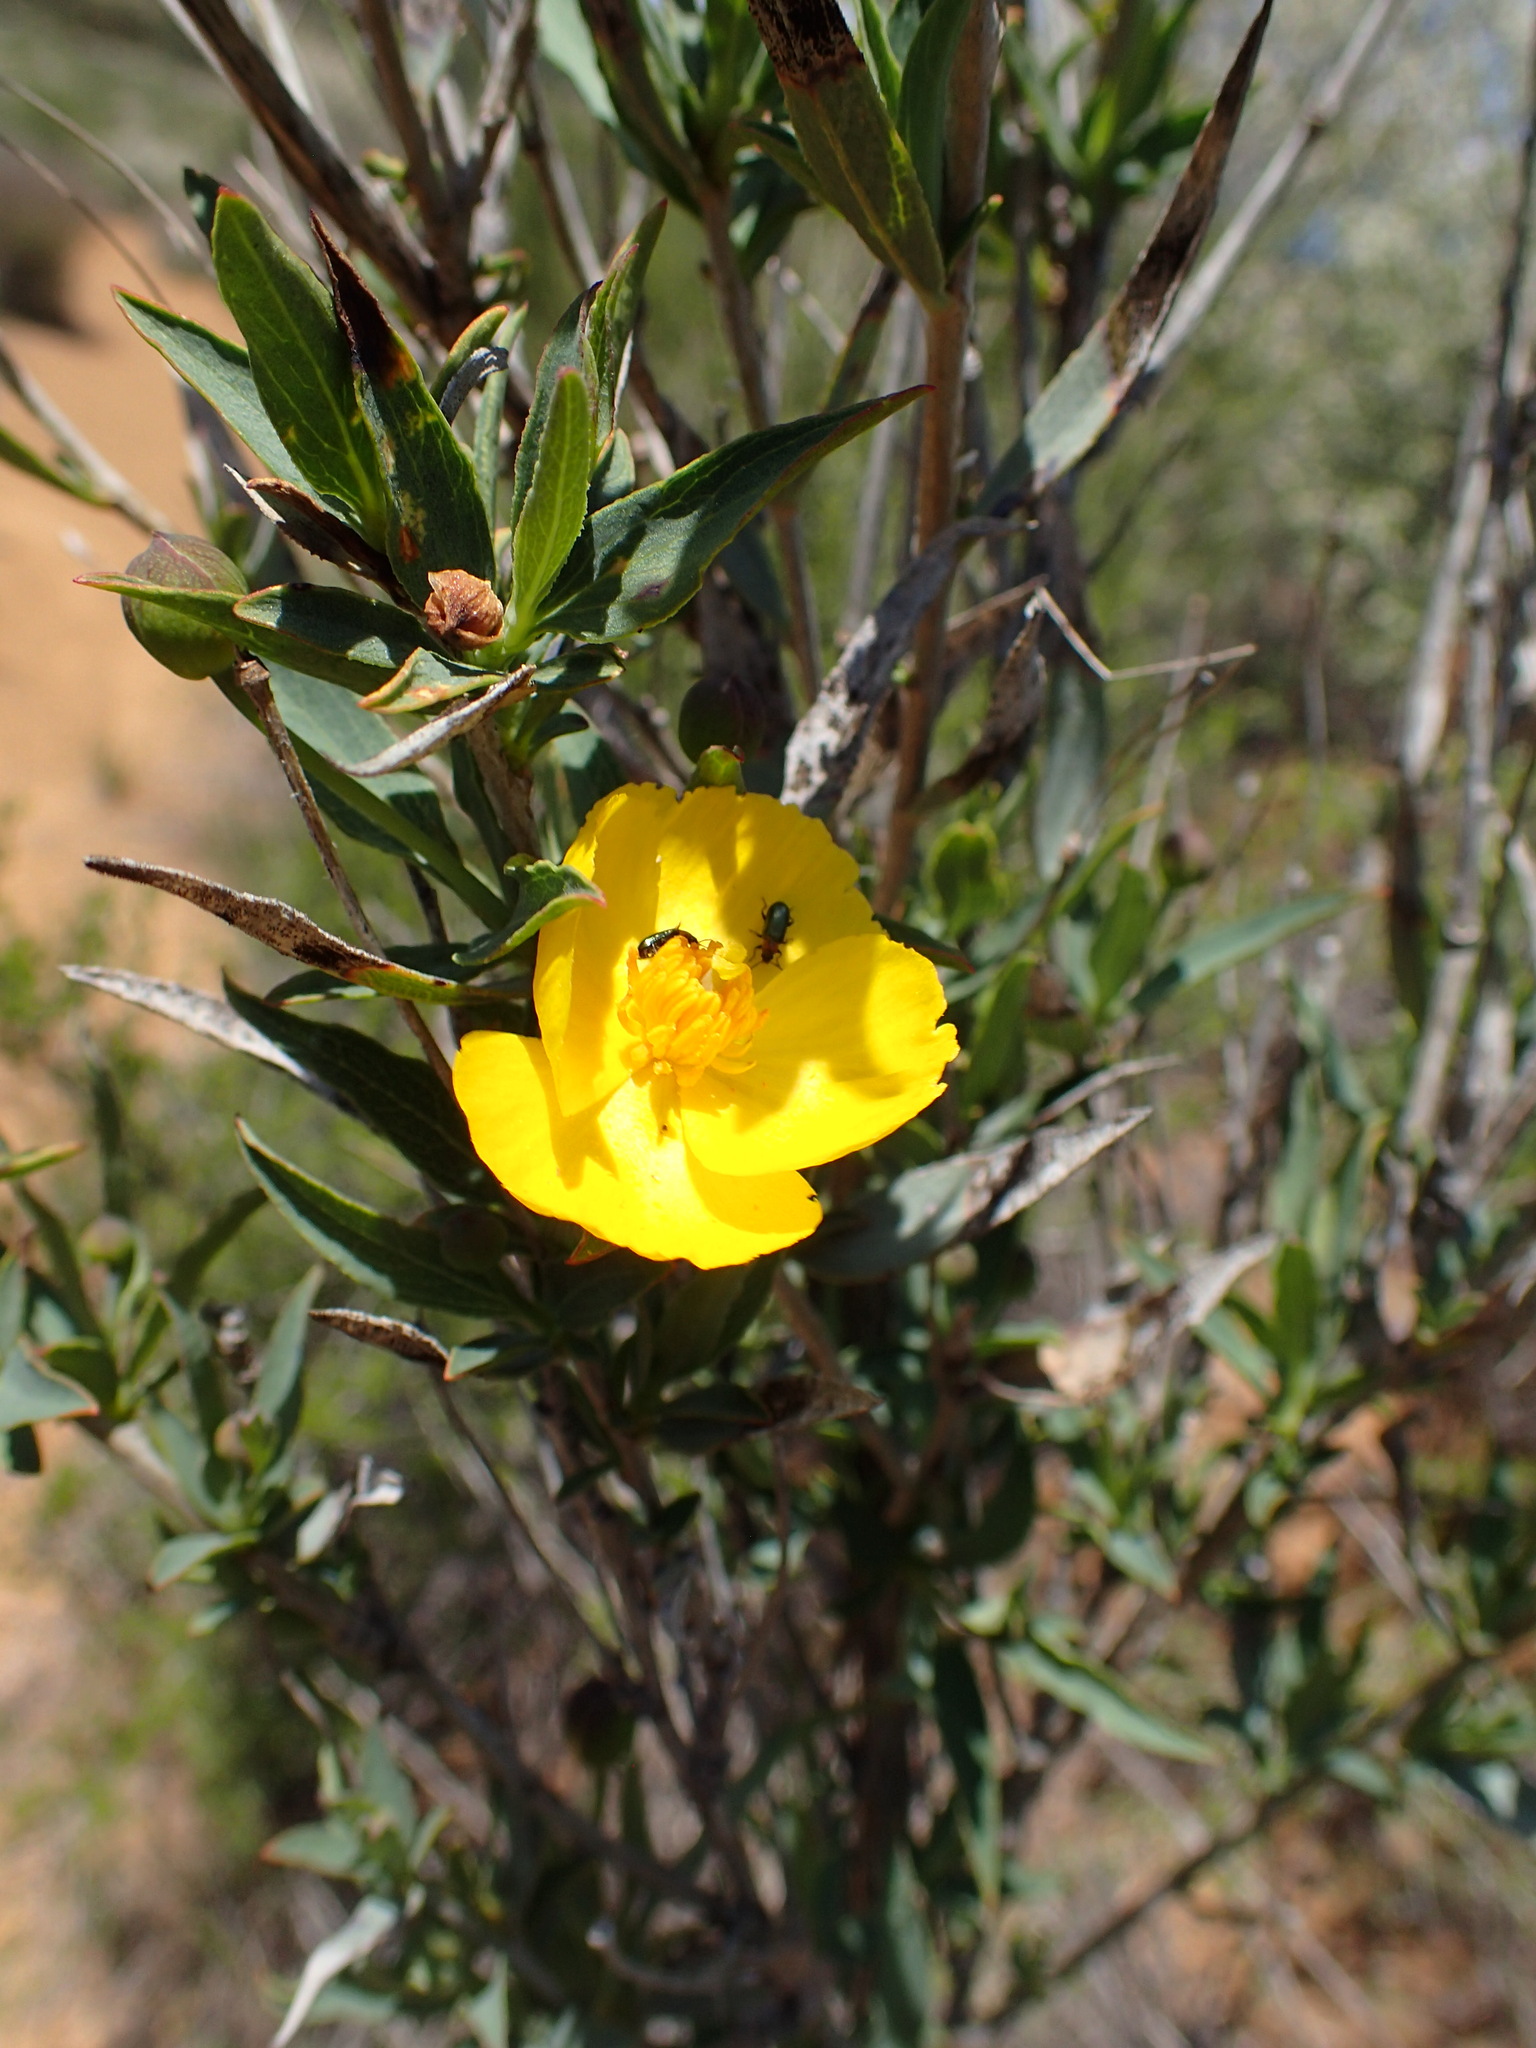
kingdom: Plantae
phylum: Tracheophyta
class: Magnoliopsida
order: Ranunculales
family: Papaveraceae
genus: Dendromecon
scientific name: Dendromecon rigida
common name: Tree poppy
